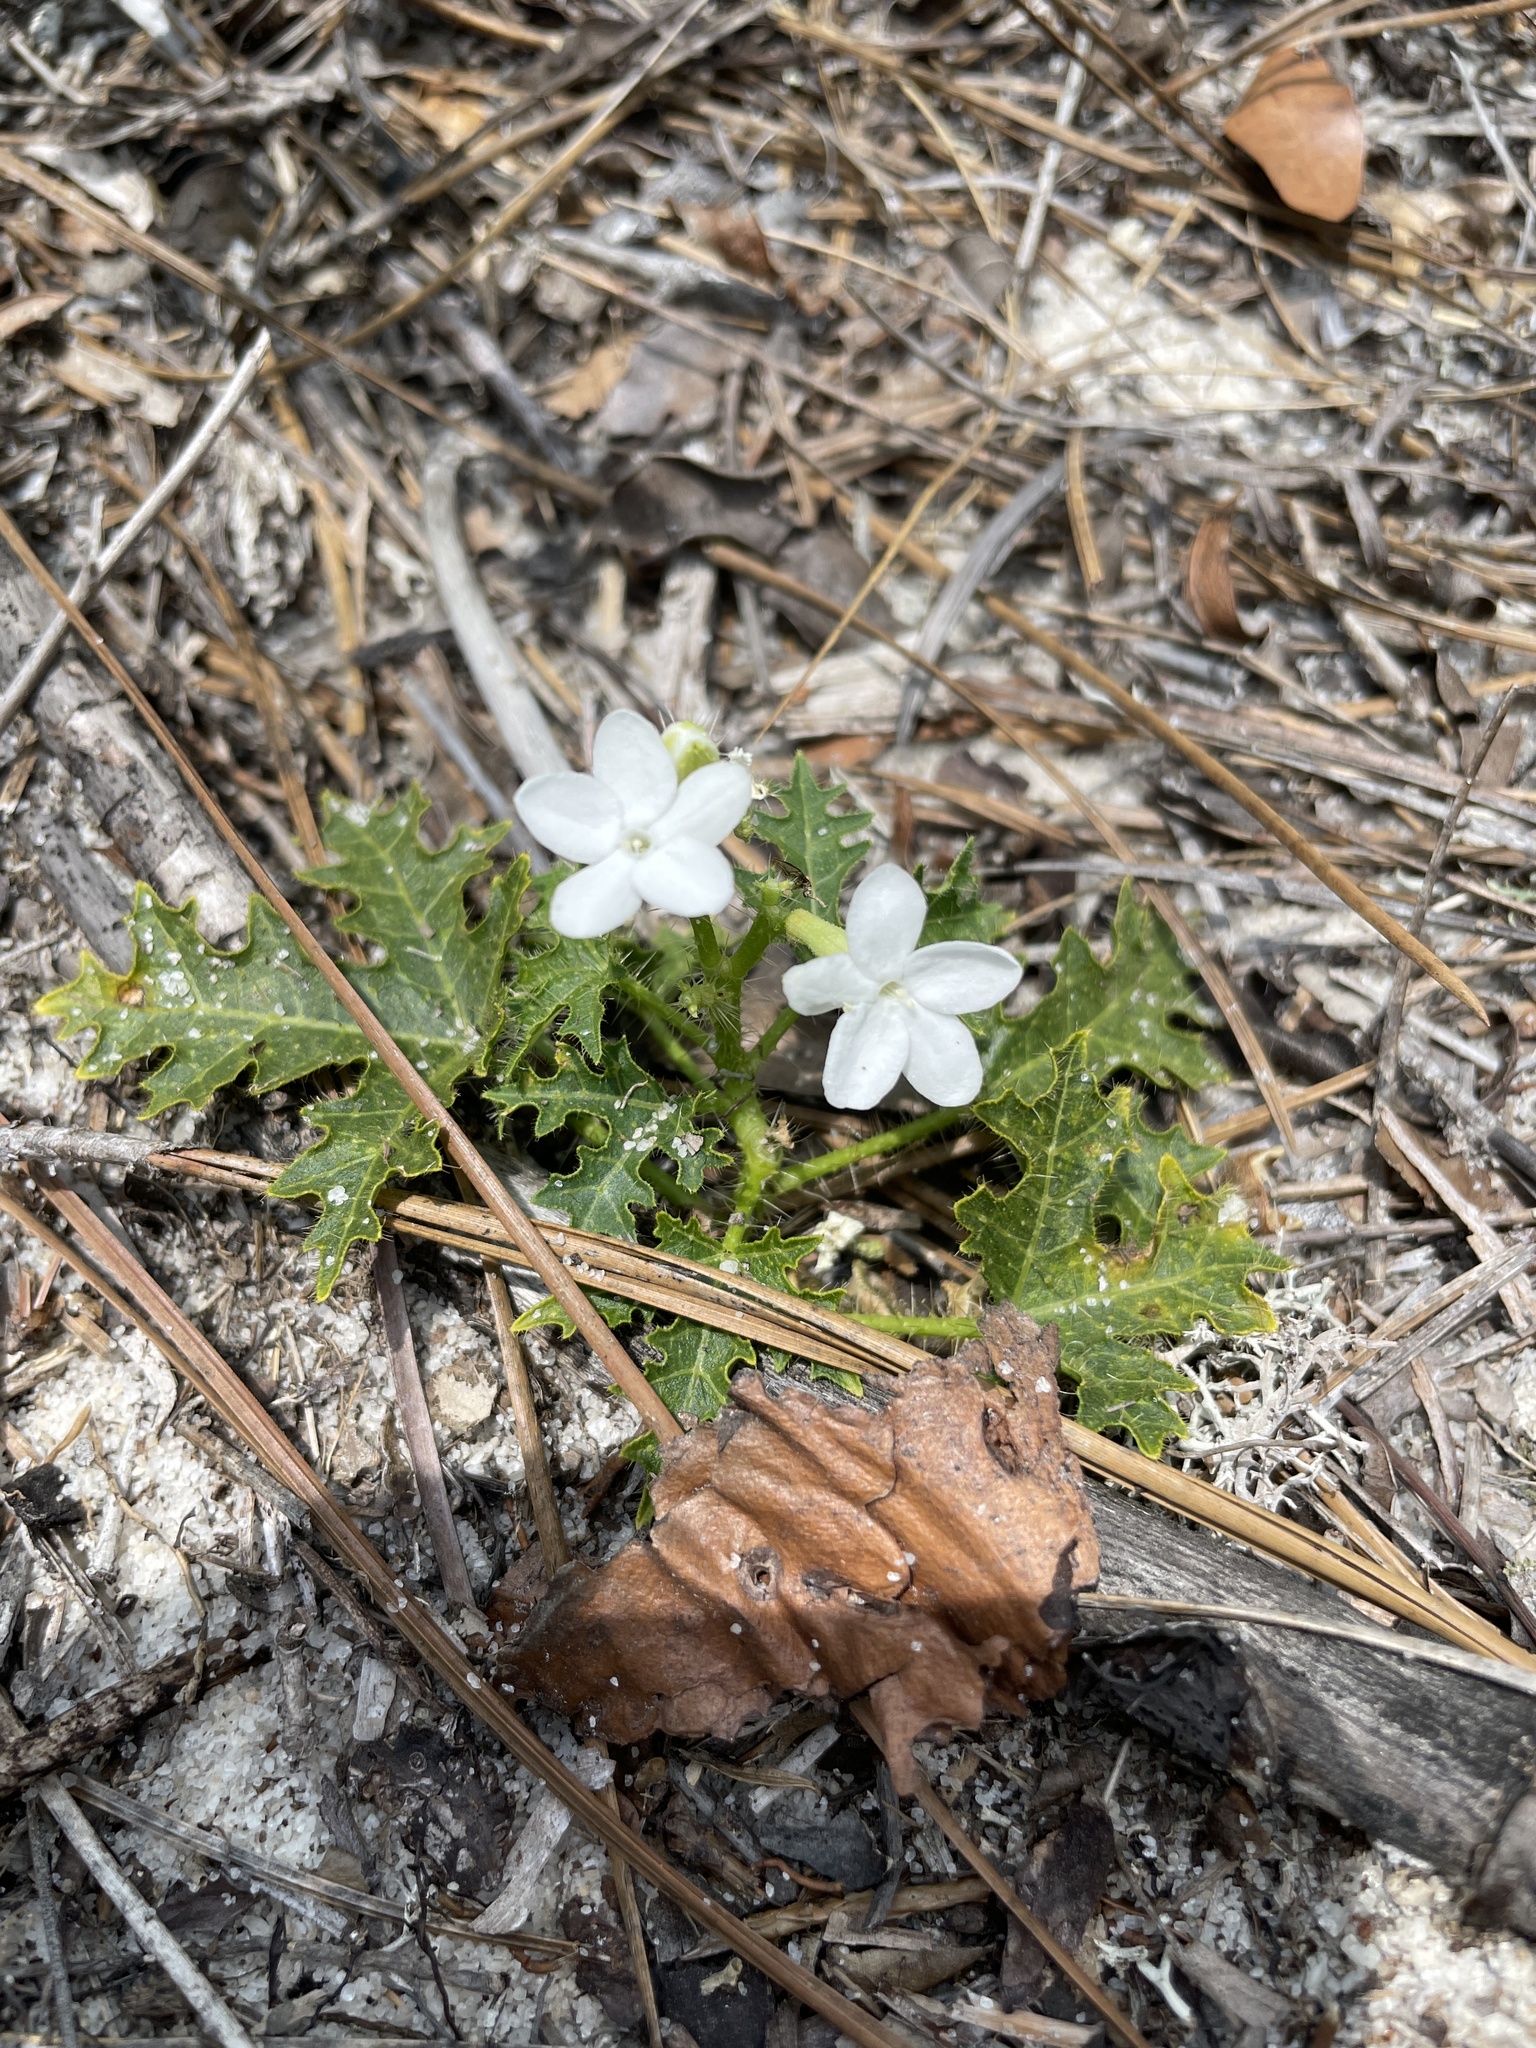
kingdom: Plantae
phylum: Tracheophyta
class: Magnoliopsida
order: Malpighiales
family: Euphorbiaceae
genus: Cnidoscolus
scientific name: Cnidoscolus stimulosus
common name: Bull-nettle
